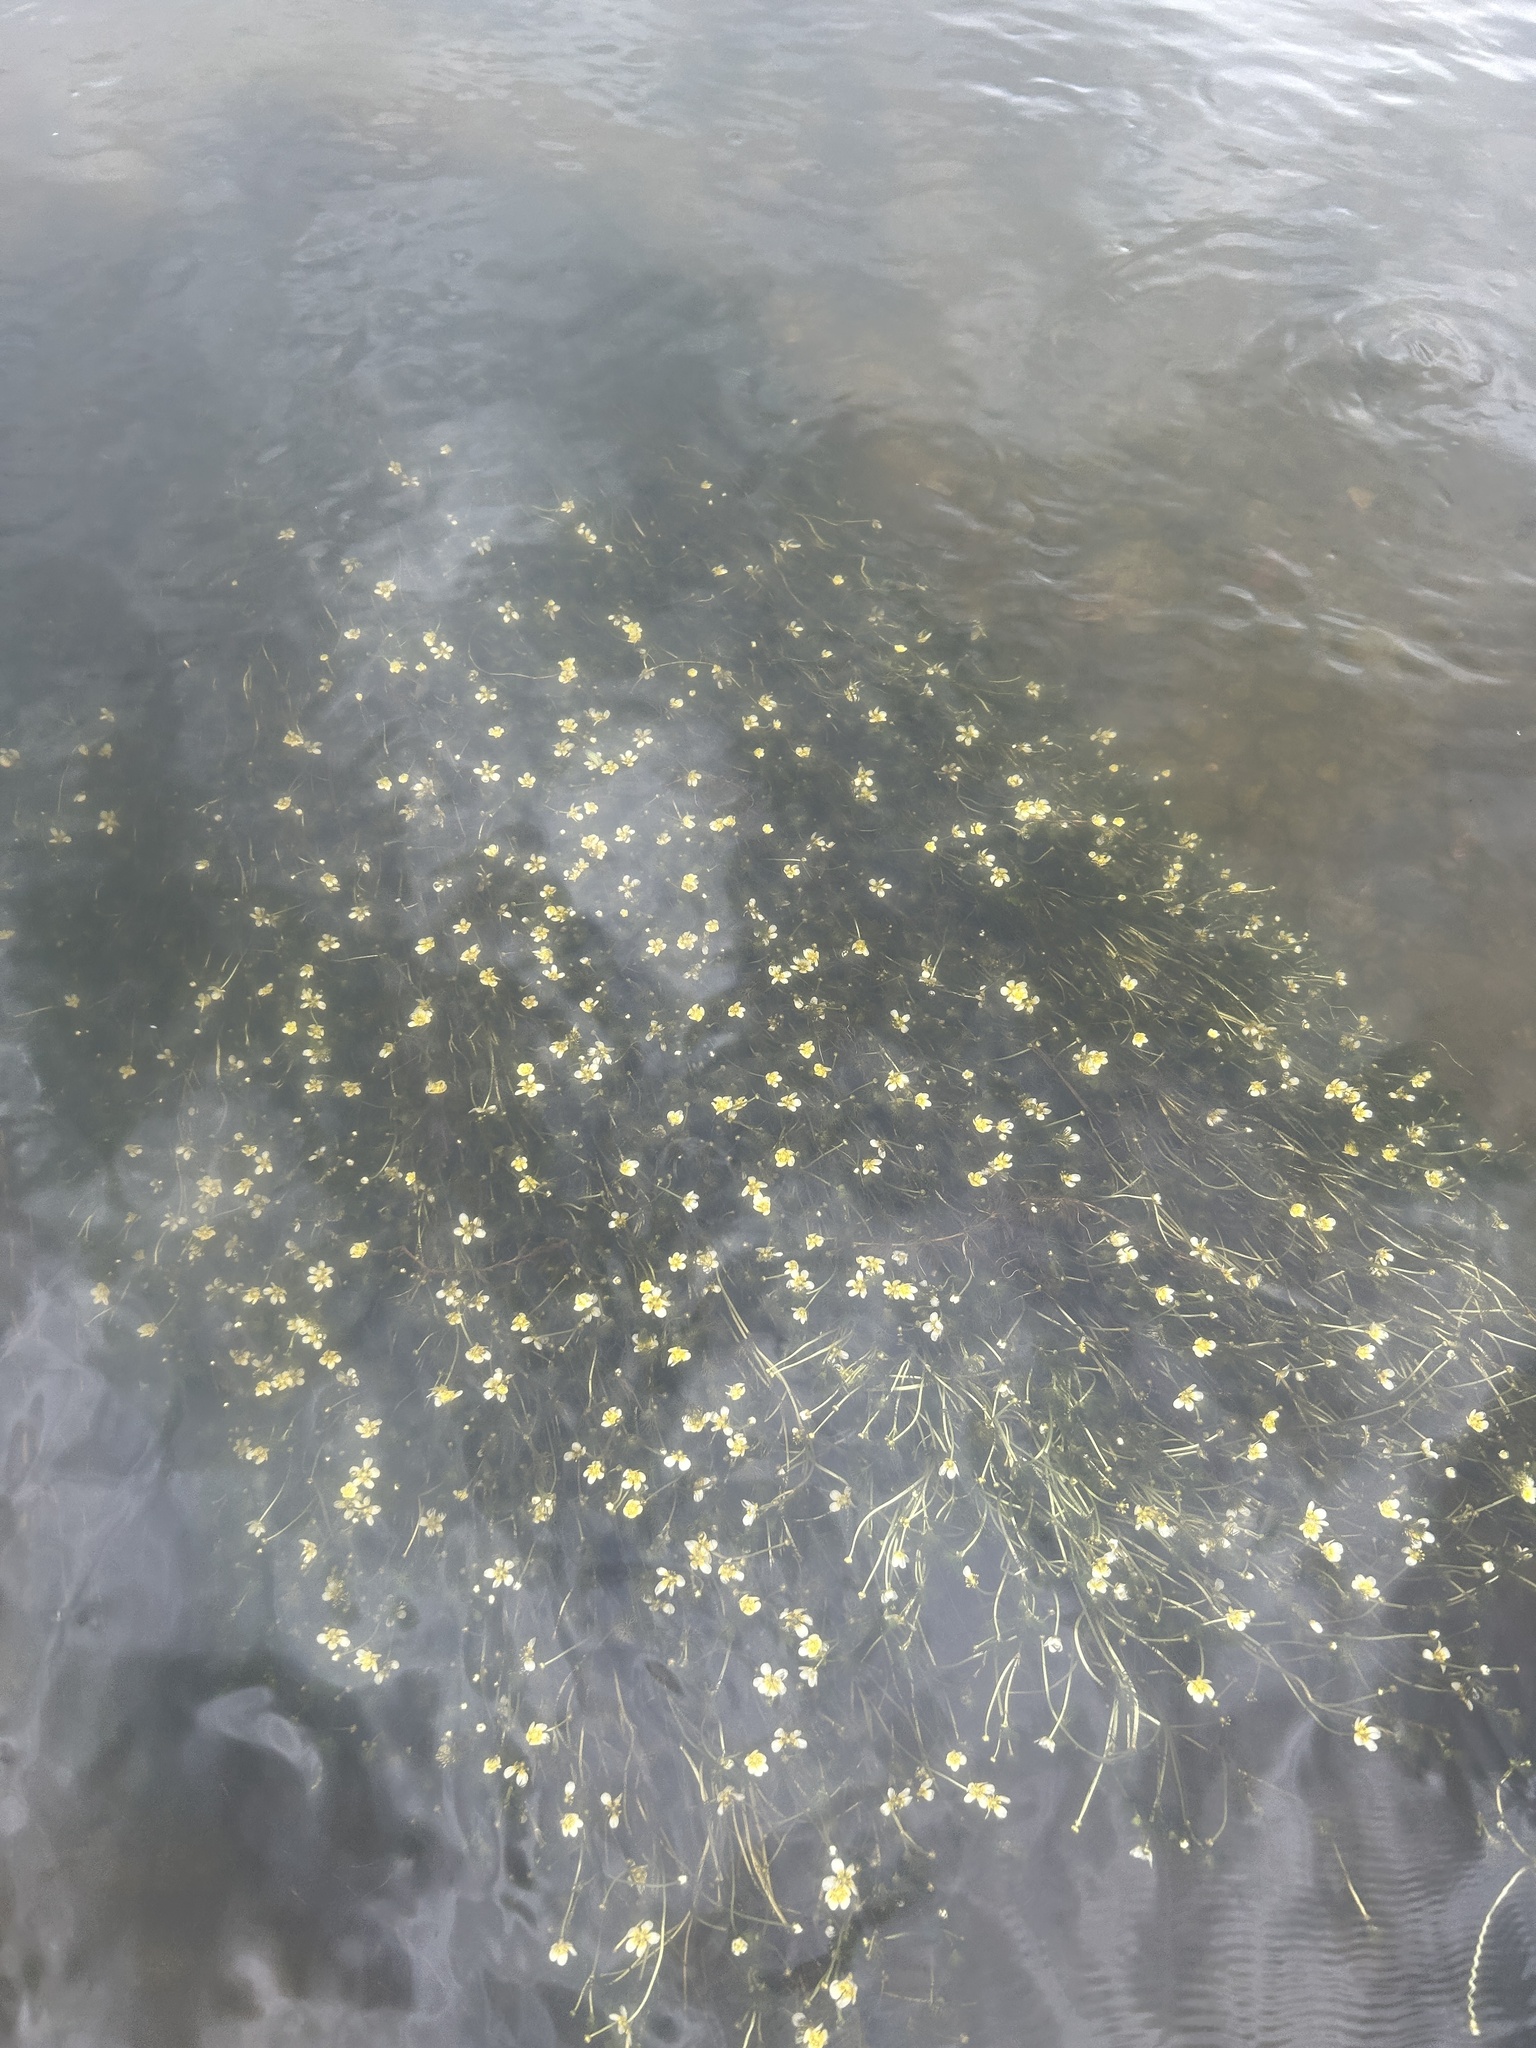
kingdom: Plantae
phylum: Tracheophyta
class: Magnoliopsida
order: Ranunculales
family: Ranunculaceae
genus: Ranunculus
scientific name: Ranunculus circinatus
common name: Fan-leaved water-crowfoot
